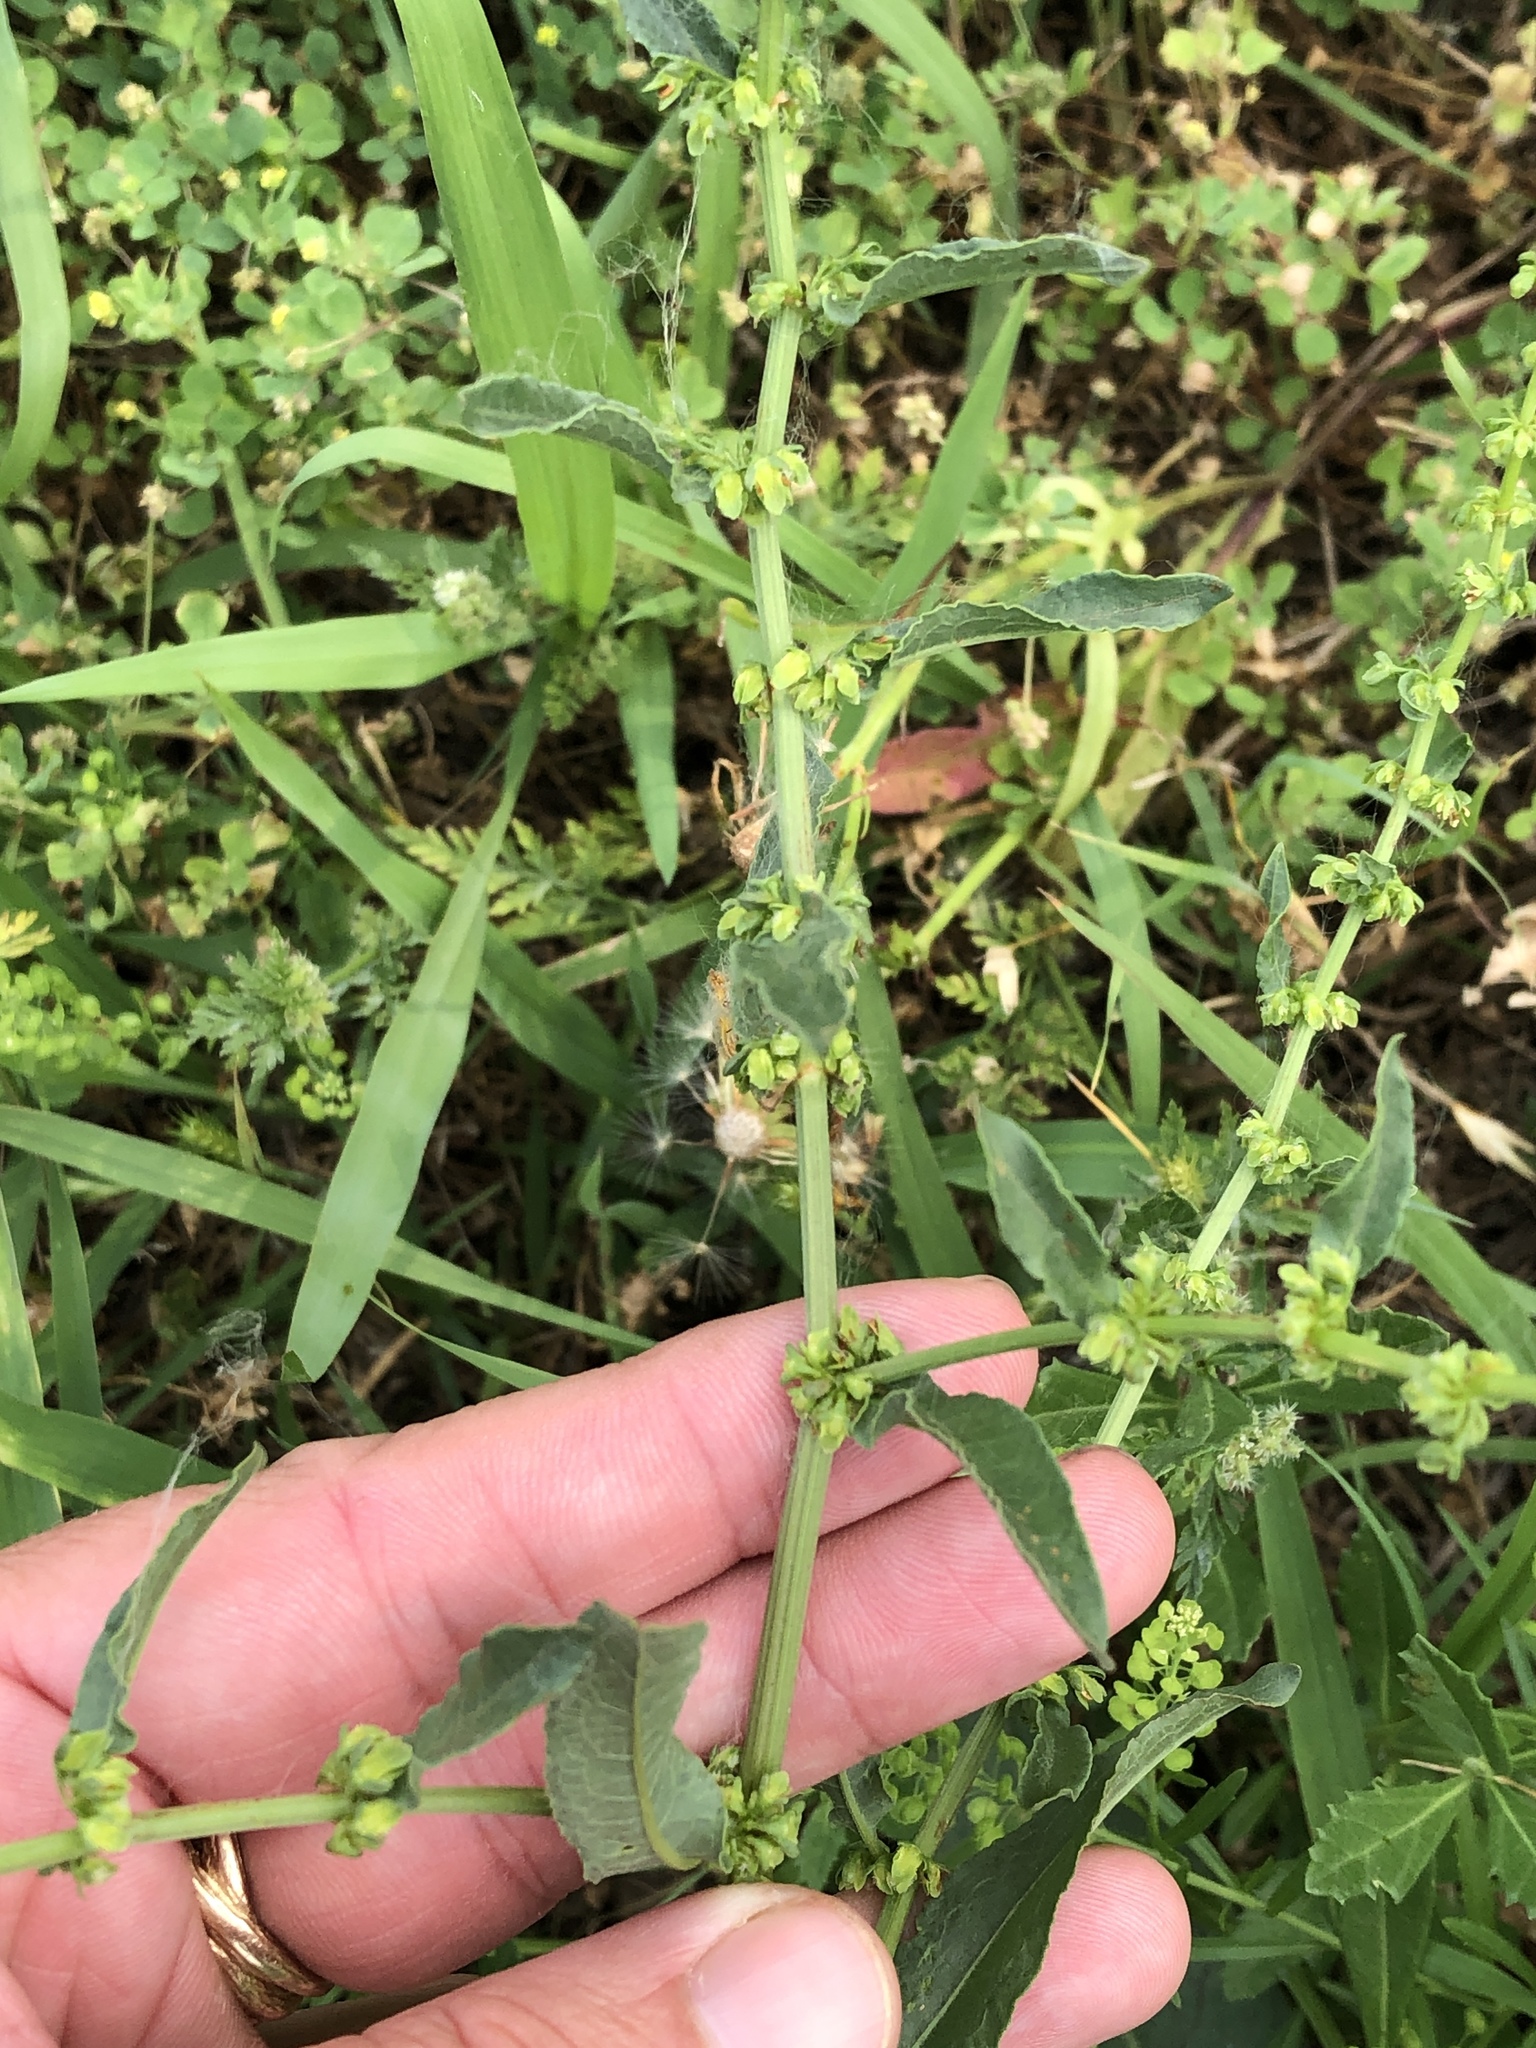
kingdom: Plantae
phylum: Tracheophyta
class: Magnoliopsida
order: Caryophyllales
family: Polygonaceae
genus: Rumex
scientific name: Rumex pulcher
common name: Fiddle dock
